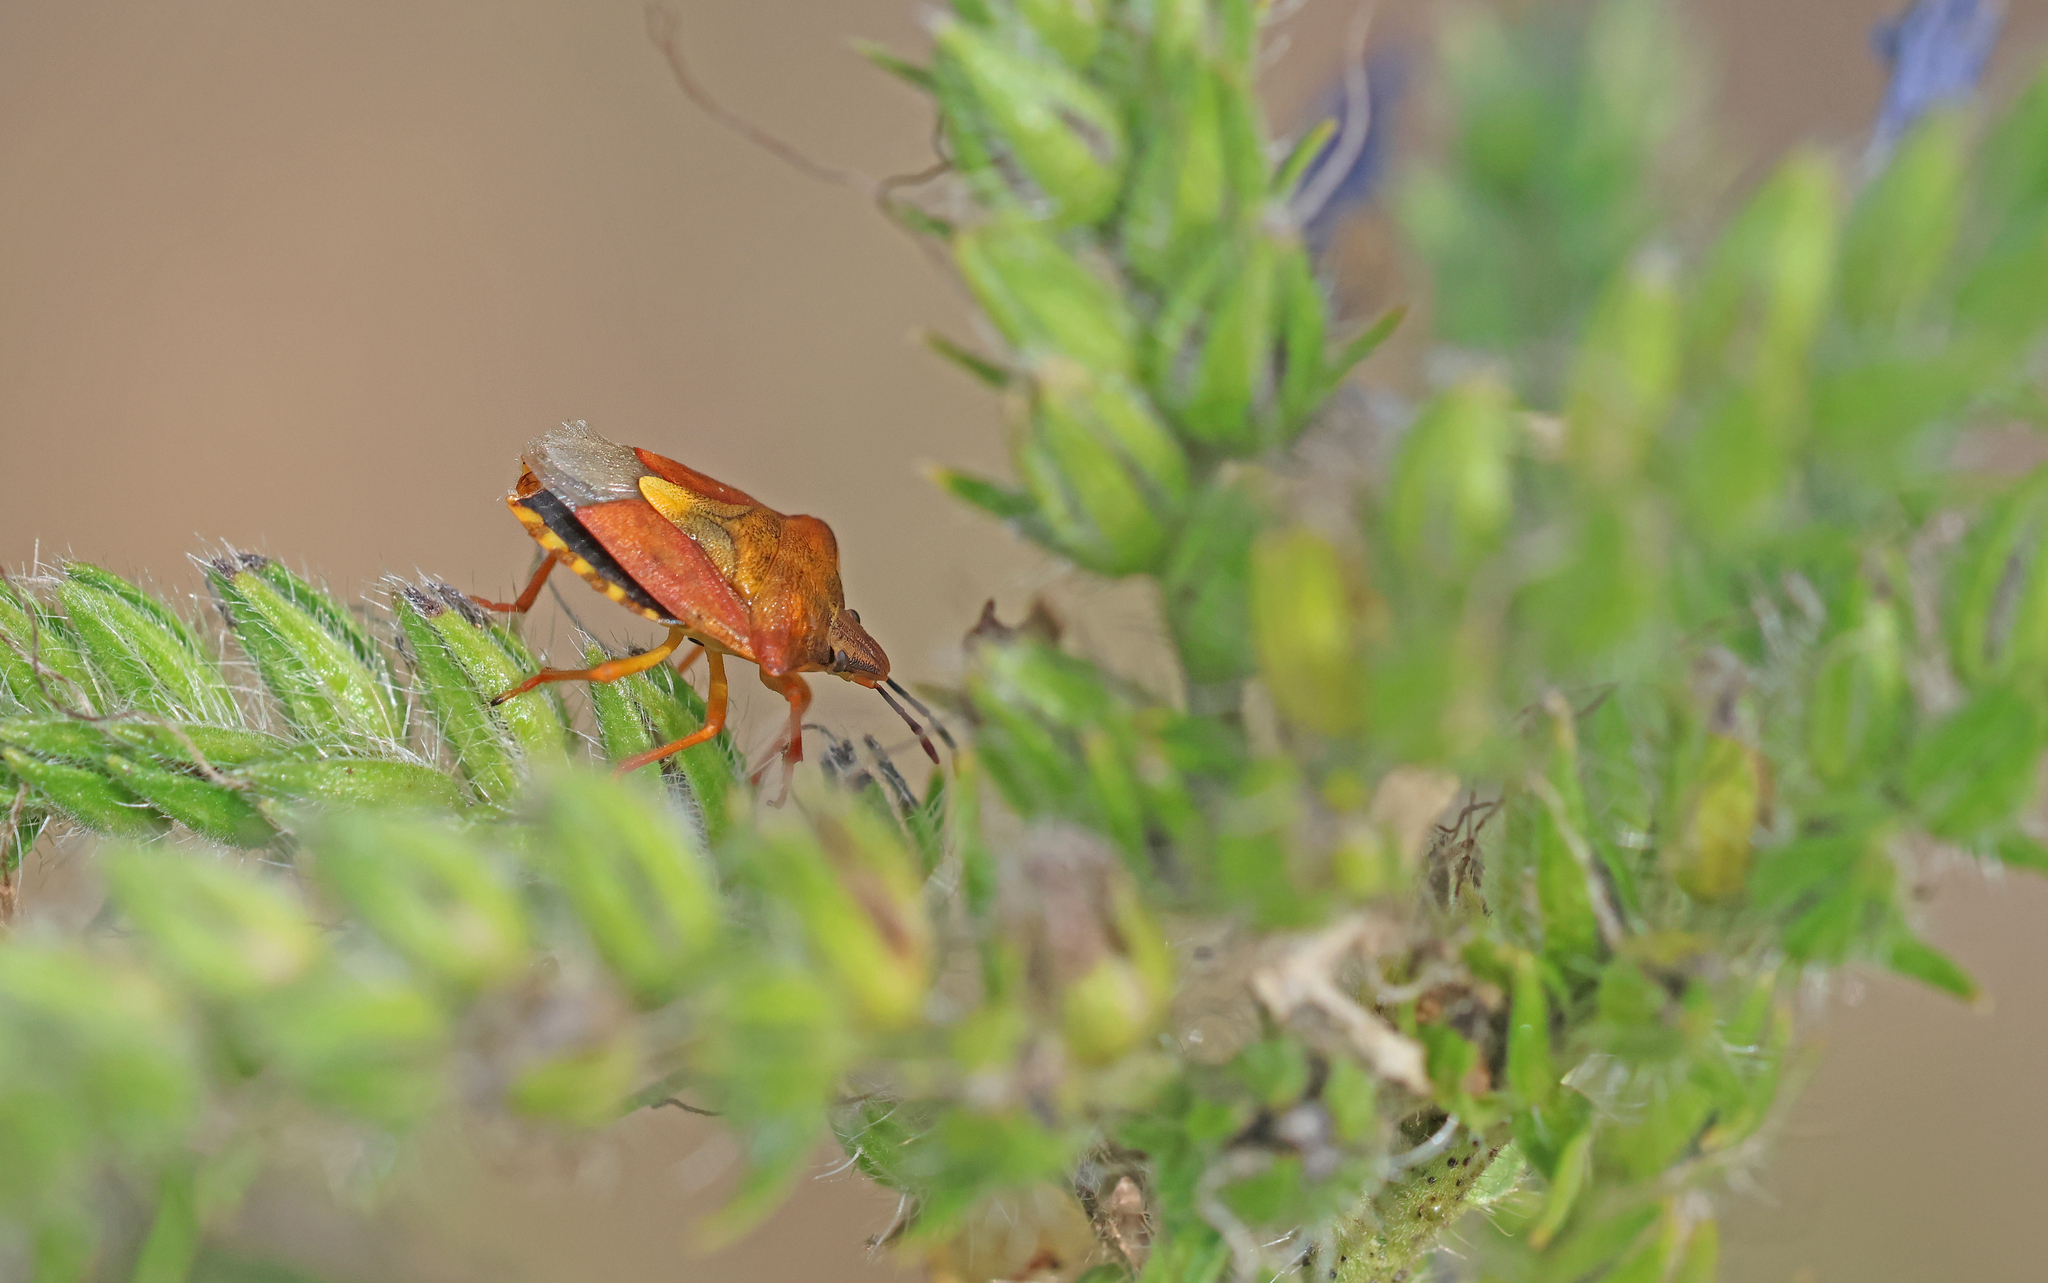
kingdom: Animalia
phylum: Arthropoda
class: Insecta
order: Hemiptera
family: Pentatomidae
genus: Carpocoris
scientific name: Carpocoris purpureipennis
